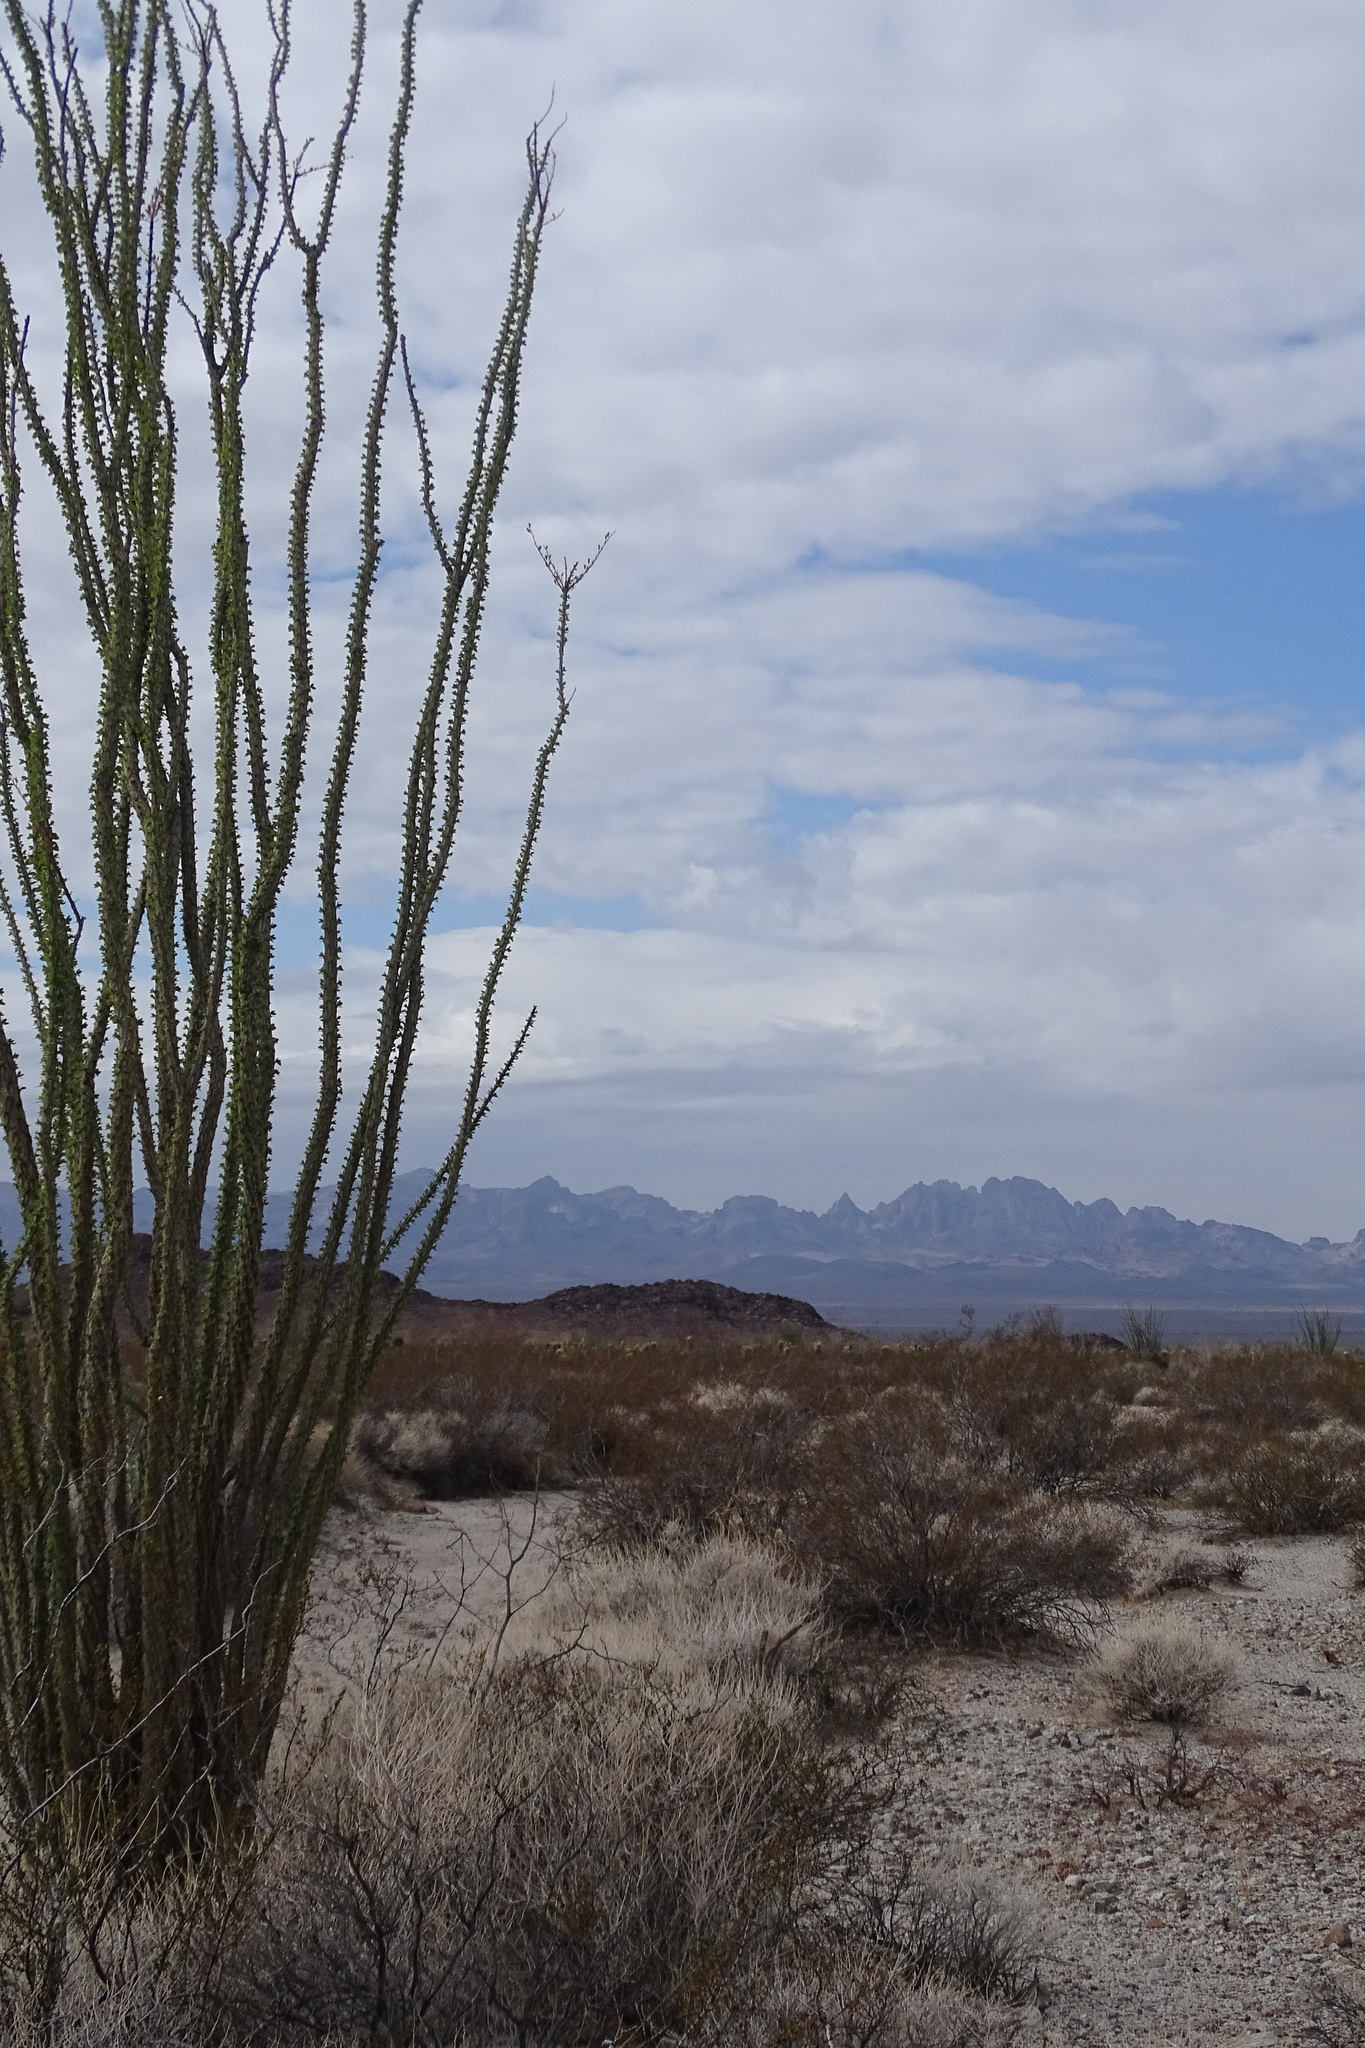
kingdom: Plantae
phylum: Tracheophyta
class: Magnoliopsida
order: Ericales
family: Fouquieriaceae
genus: Fouquieria
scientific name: Fouquieria splendens
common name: Vine-cactus
